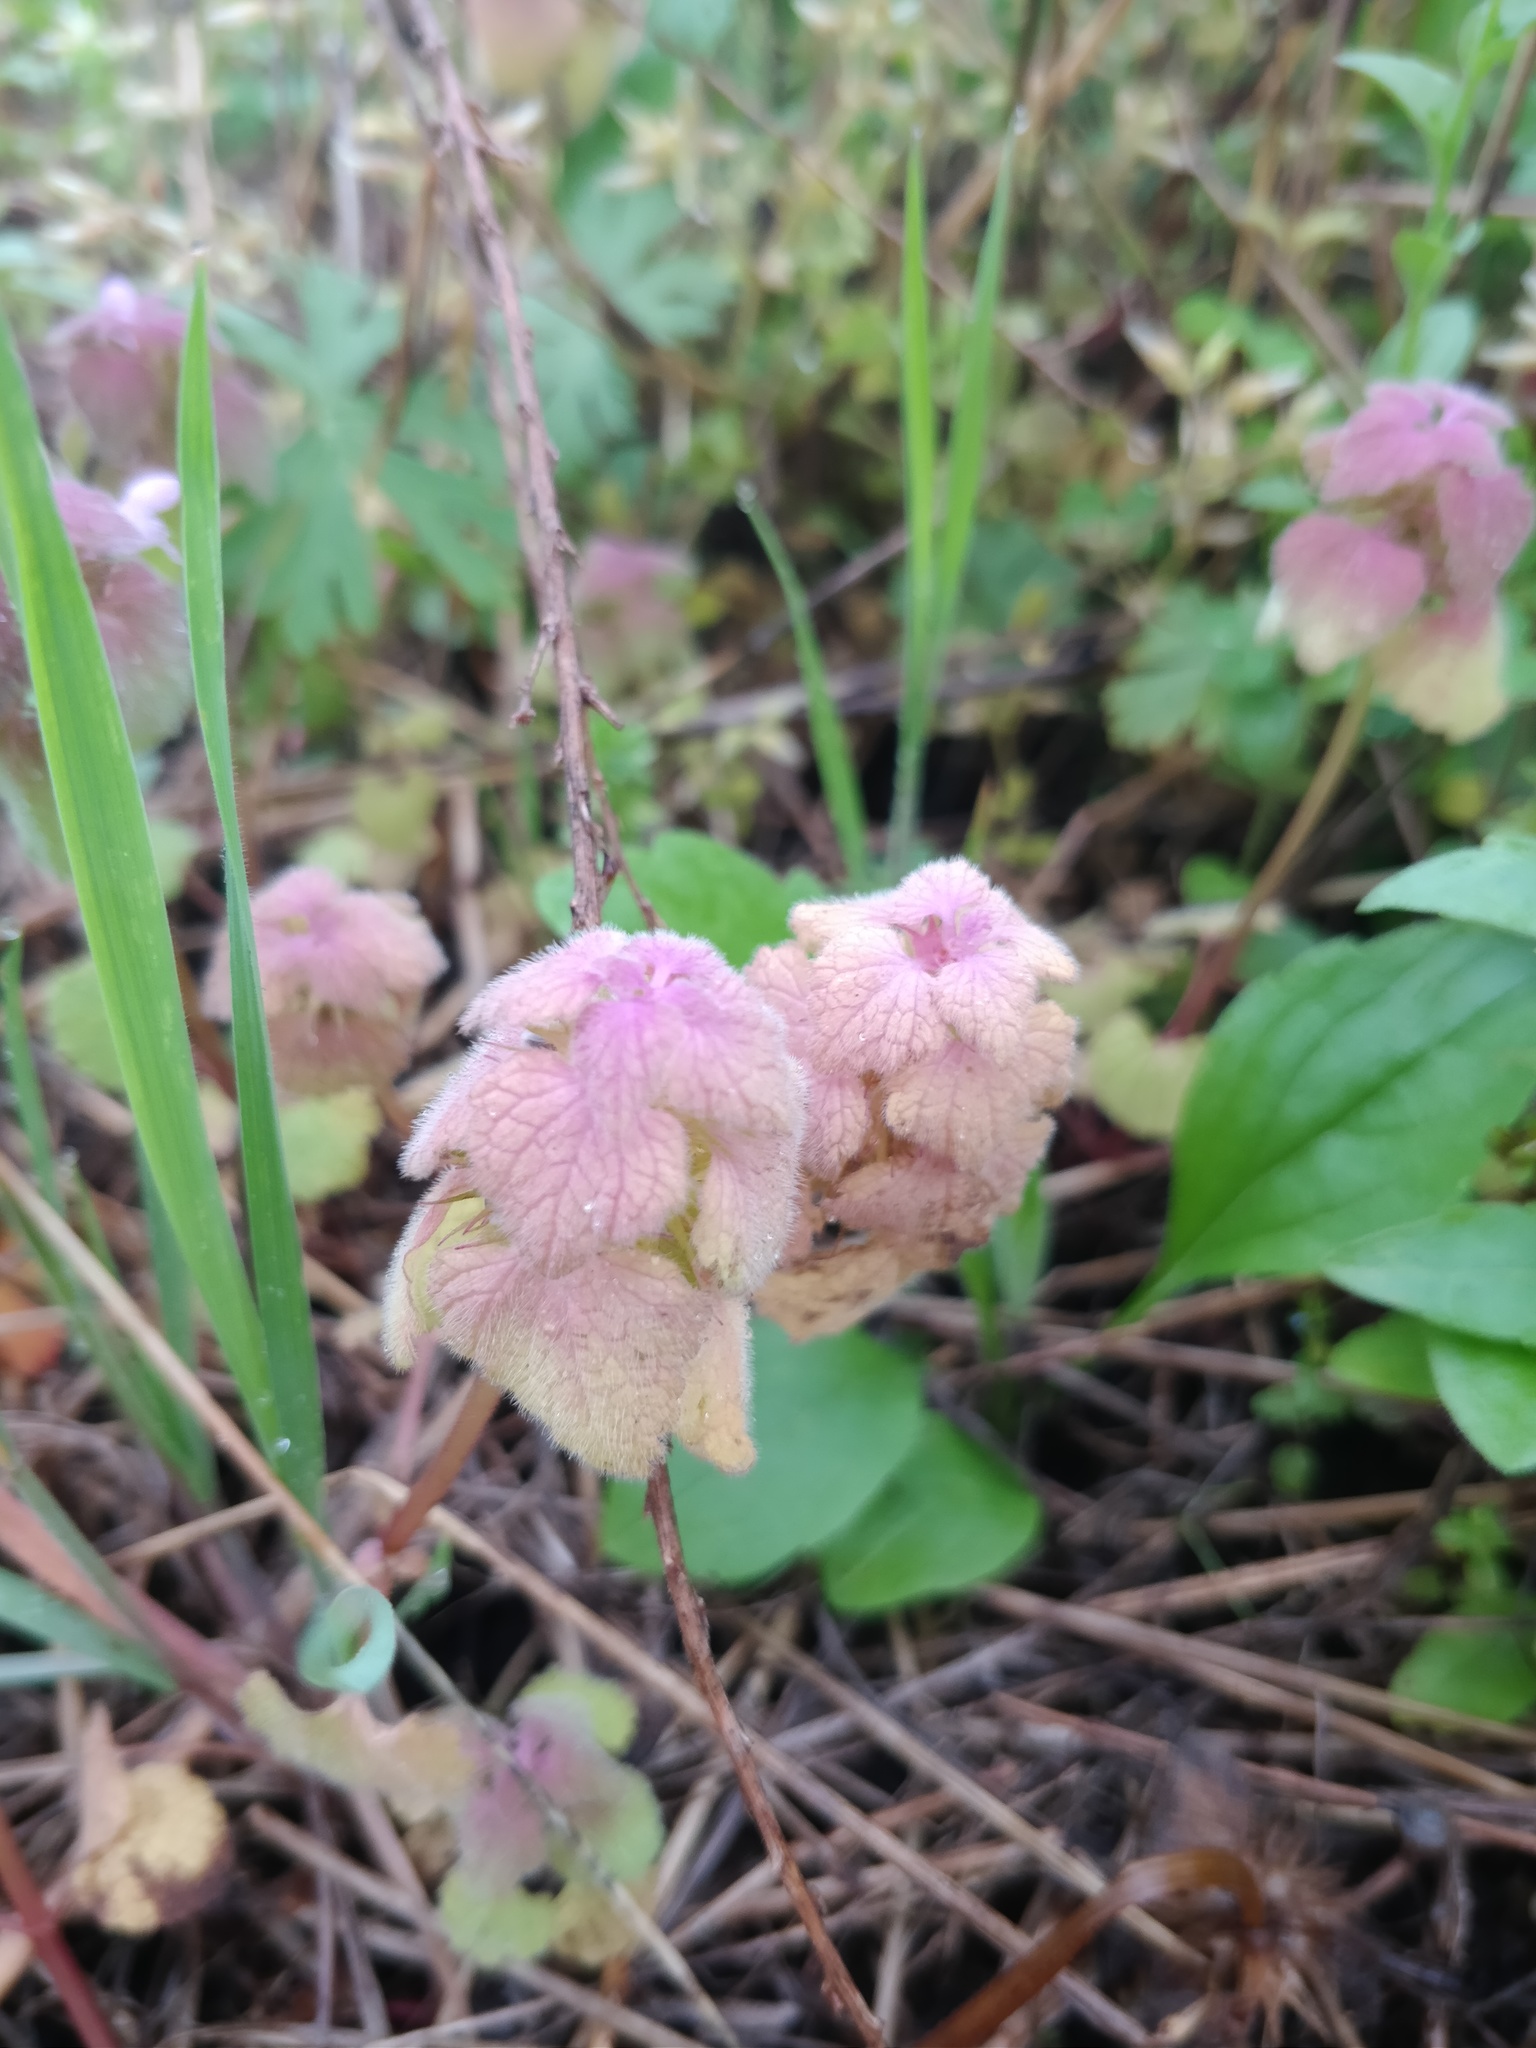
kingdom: Plantae
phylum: Tracheophyta
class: Magnoliopsida
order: Lamiales
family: Lamiaceae
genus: Lamium
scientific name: Lamium purpureum
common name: Red dead-nettle
